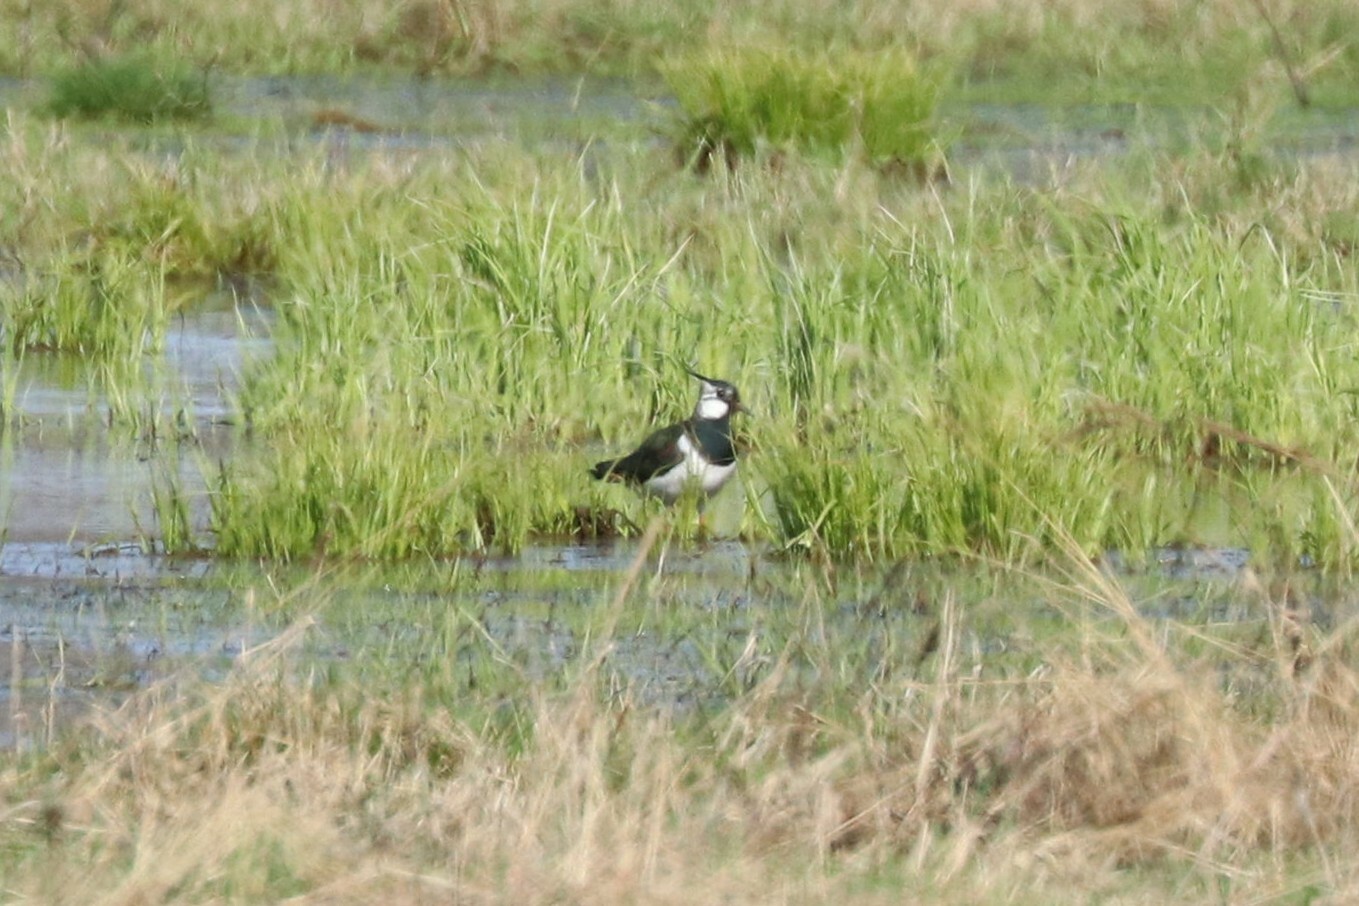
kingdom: Animalia
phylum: Chordata
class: Aves
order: Charadriiformes
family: Charadriidae
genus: Vanellus
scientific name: Vanellus vanellus
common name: Northern lapwing
